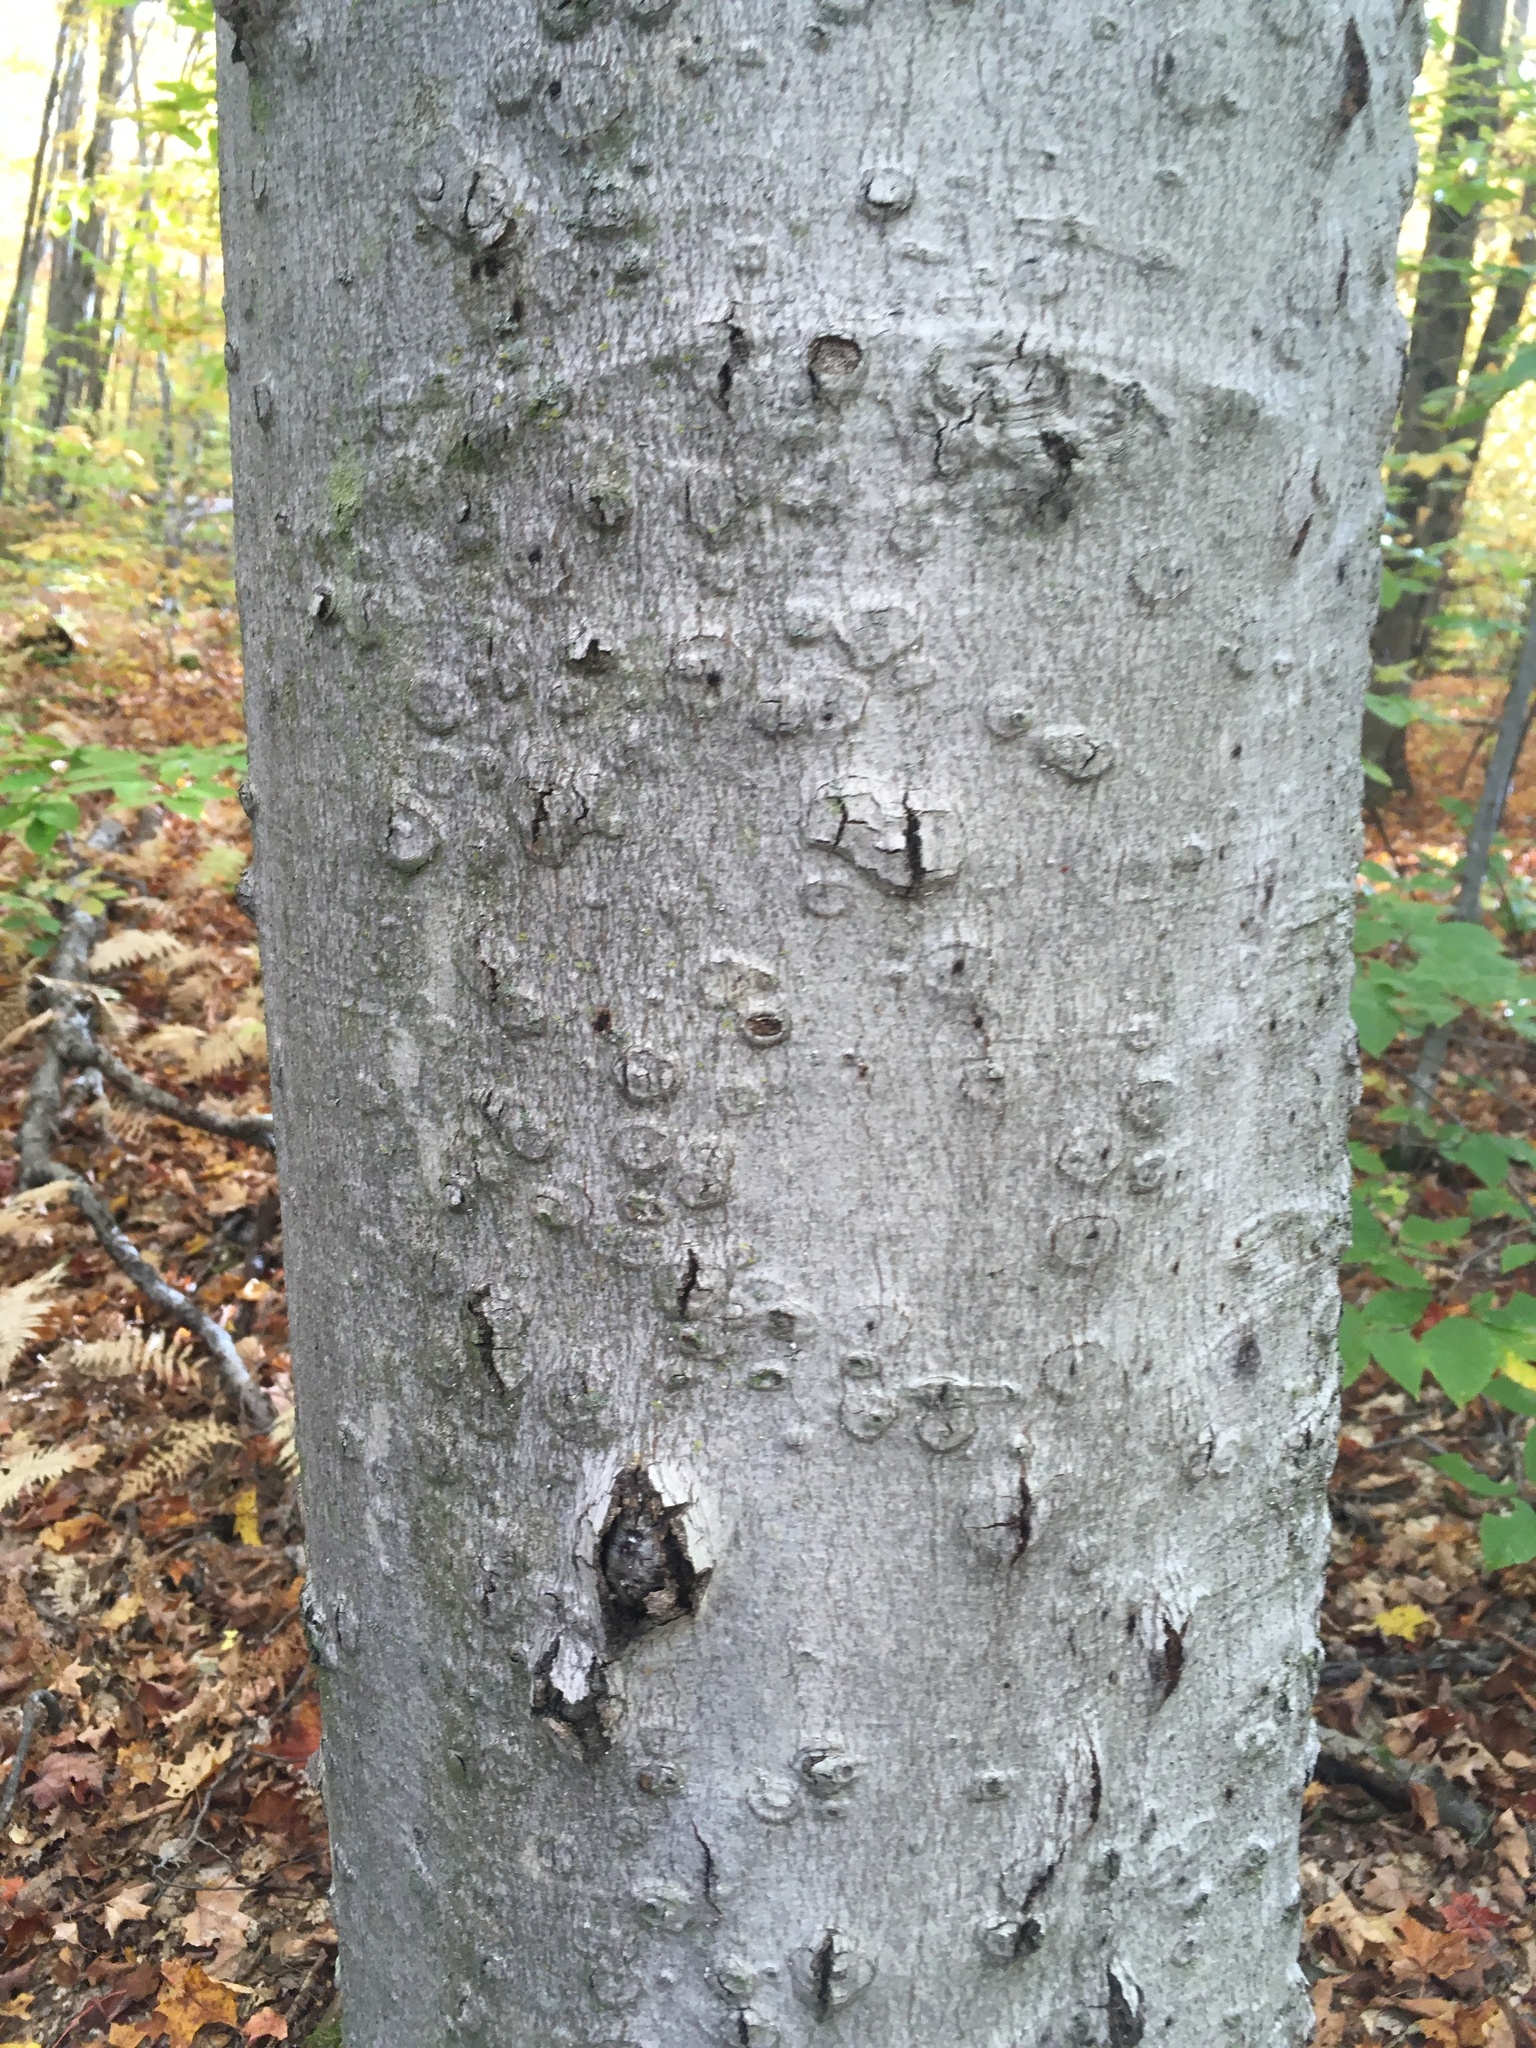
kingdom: Plantae
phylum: Tracheophyta
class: Magnoliopsida
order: Fagales
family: Fagaceae
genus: Fagus
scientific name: Fagus grandifolia
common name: American beech
